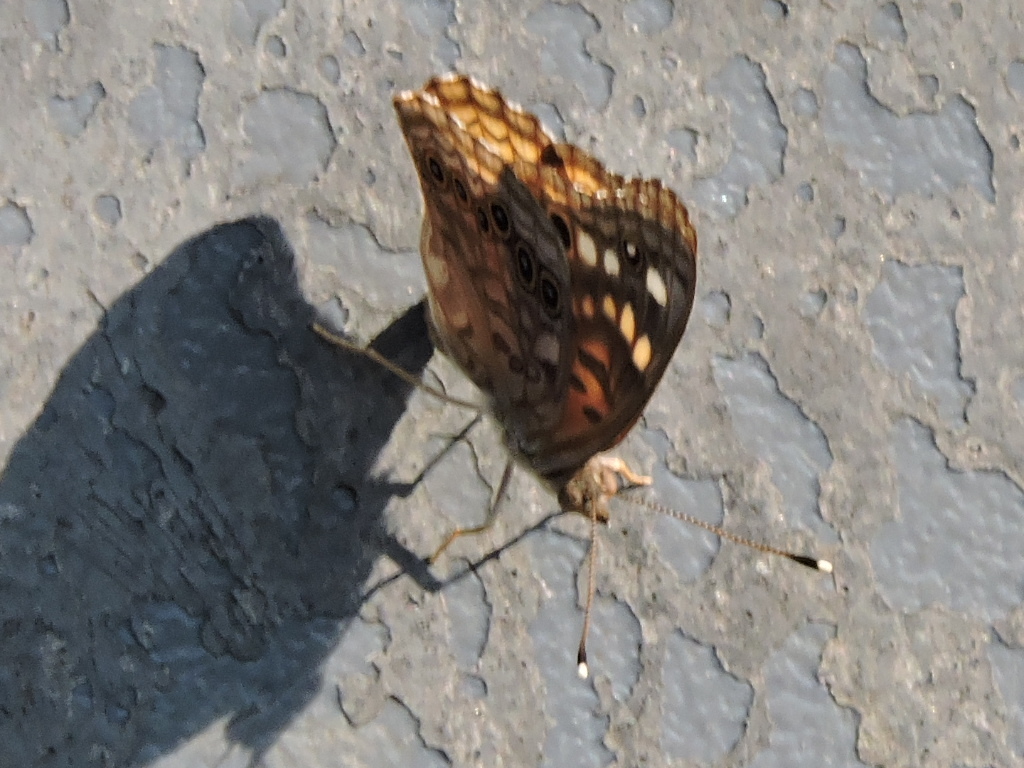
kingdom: Animalia
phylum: Arthropoda
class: Insecta
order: Lepidoptera
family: Nymphalidae
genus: Asterocampa
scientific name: Asterocampa celtis
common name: Hackberry emperor
